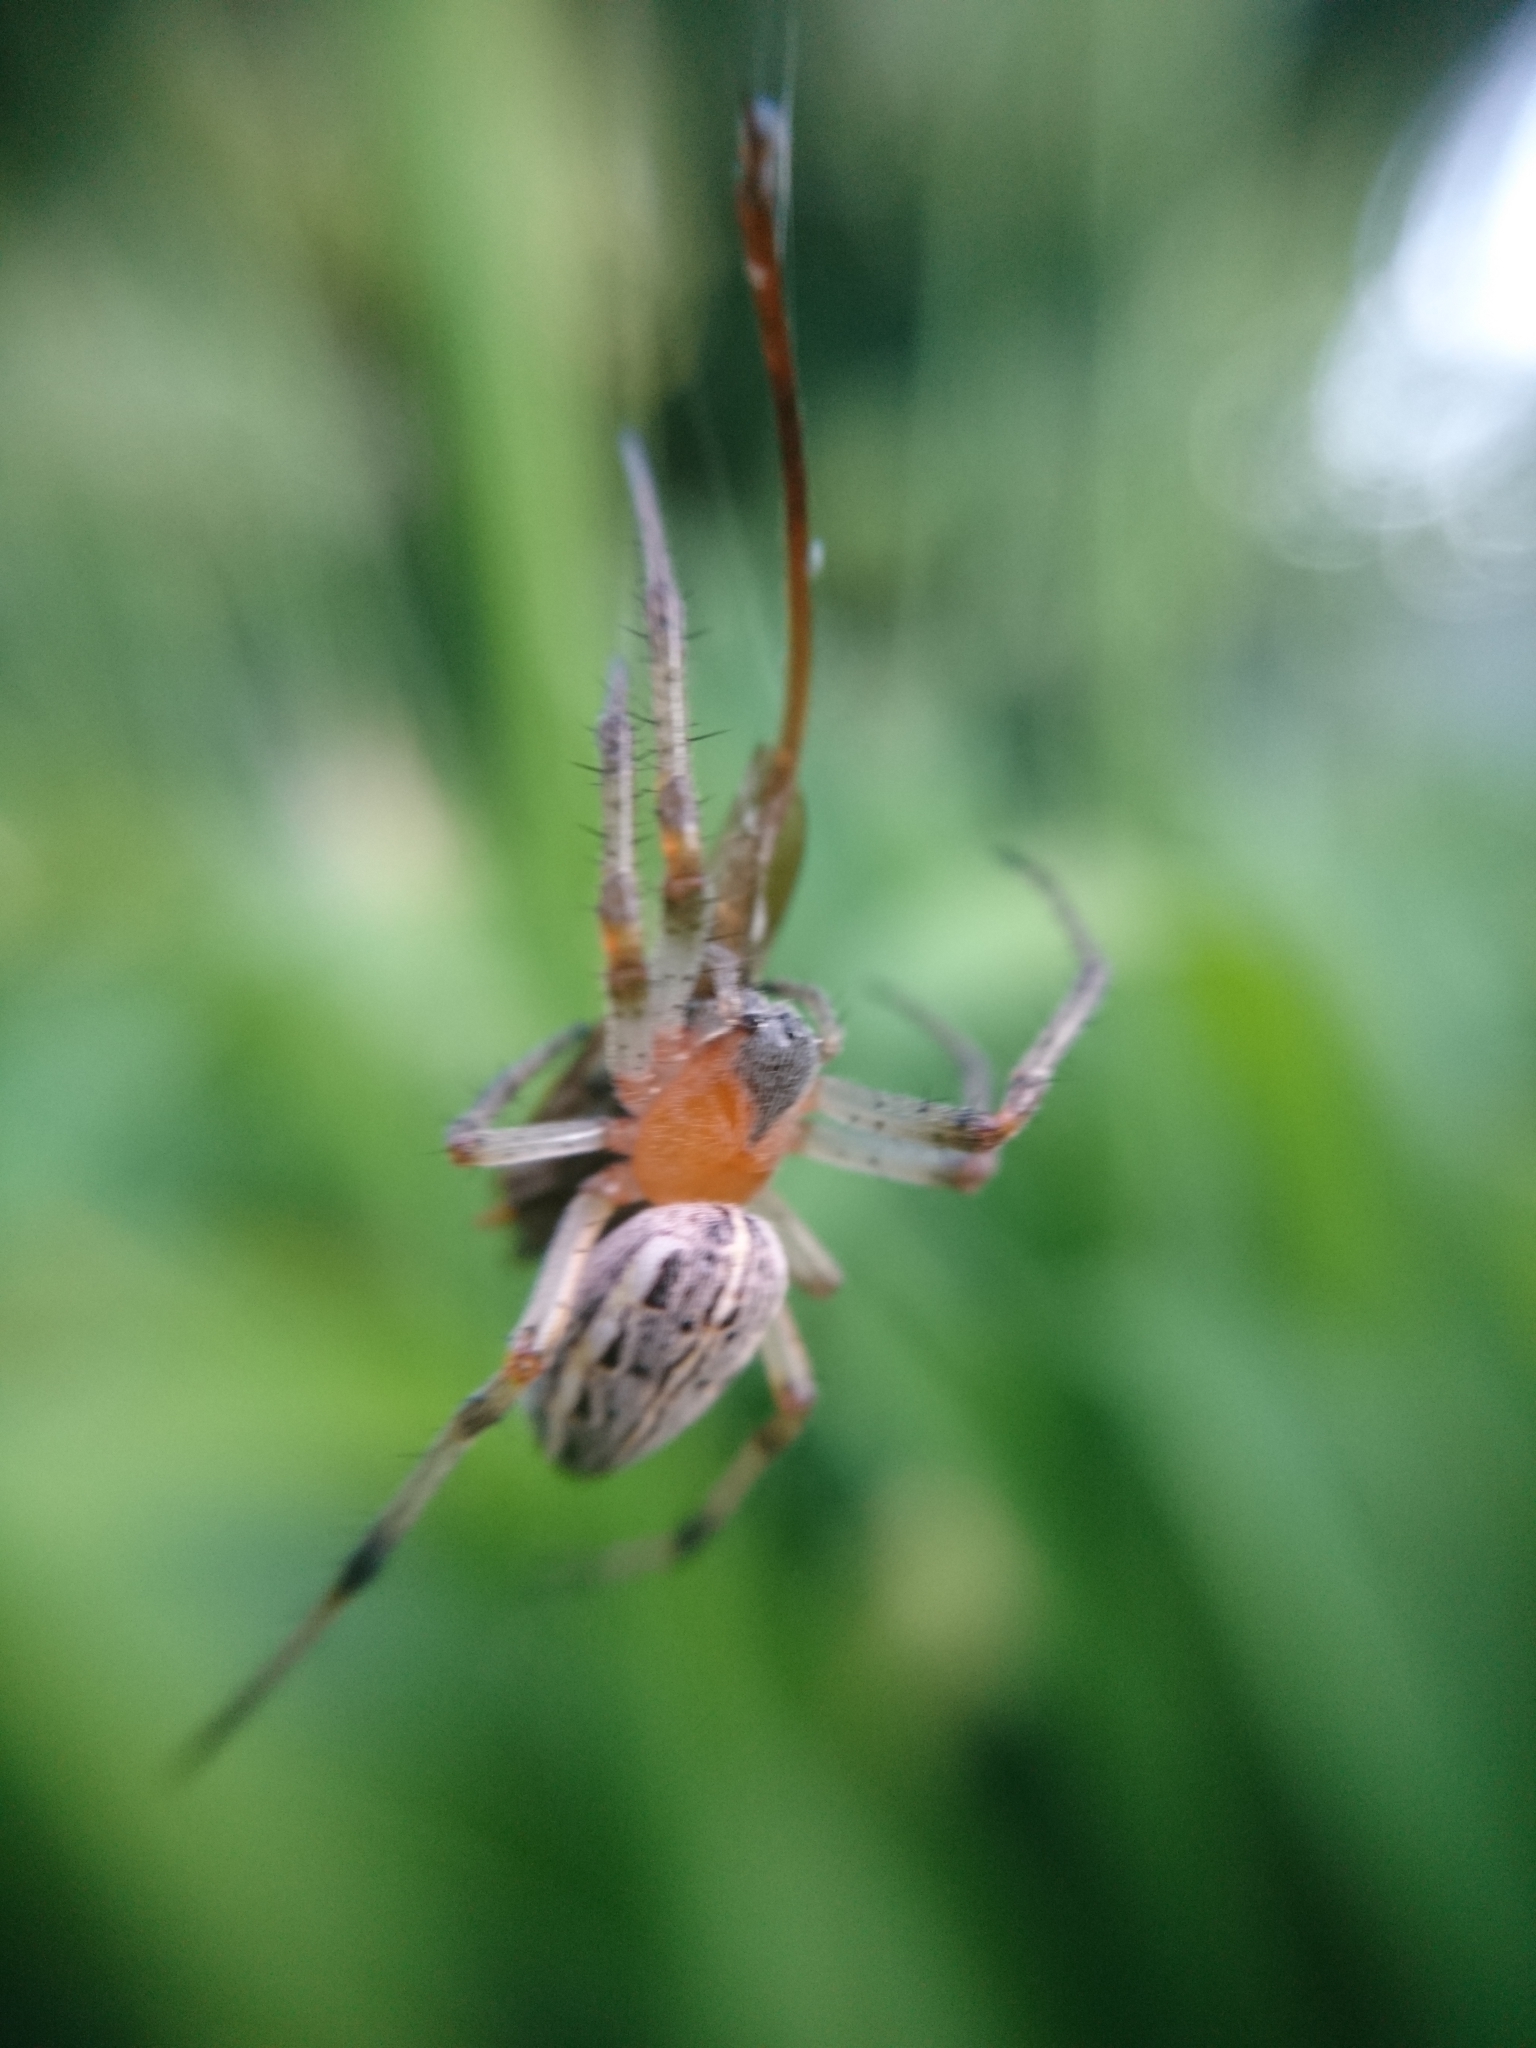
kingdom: Animalia
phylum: Arthropoda
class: Arachnida
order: Araneae
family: Araneidae
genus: Alpaida
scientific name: Alpaida veniliae
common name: Orb weavers
